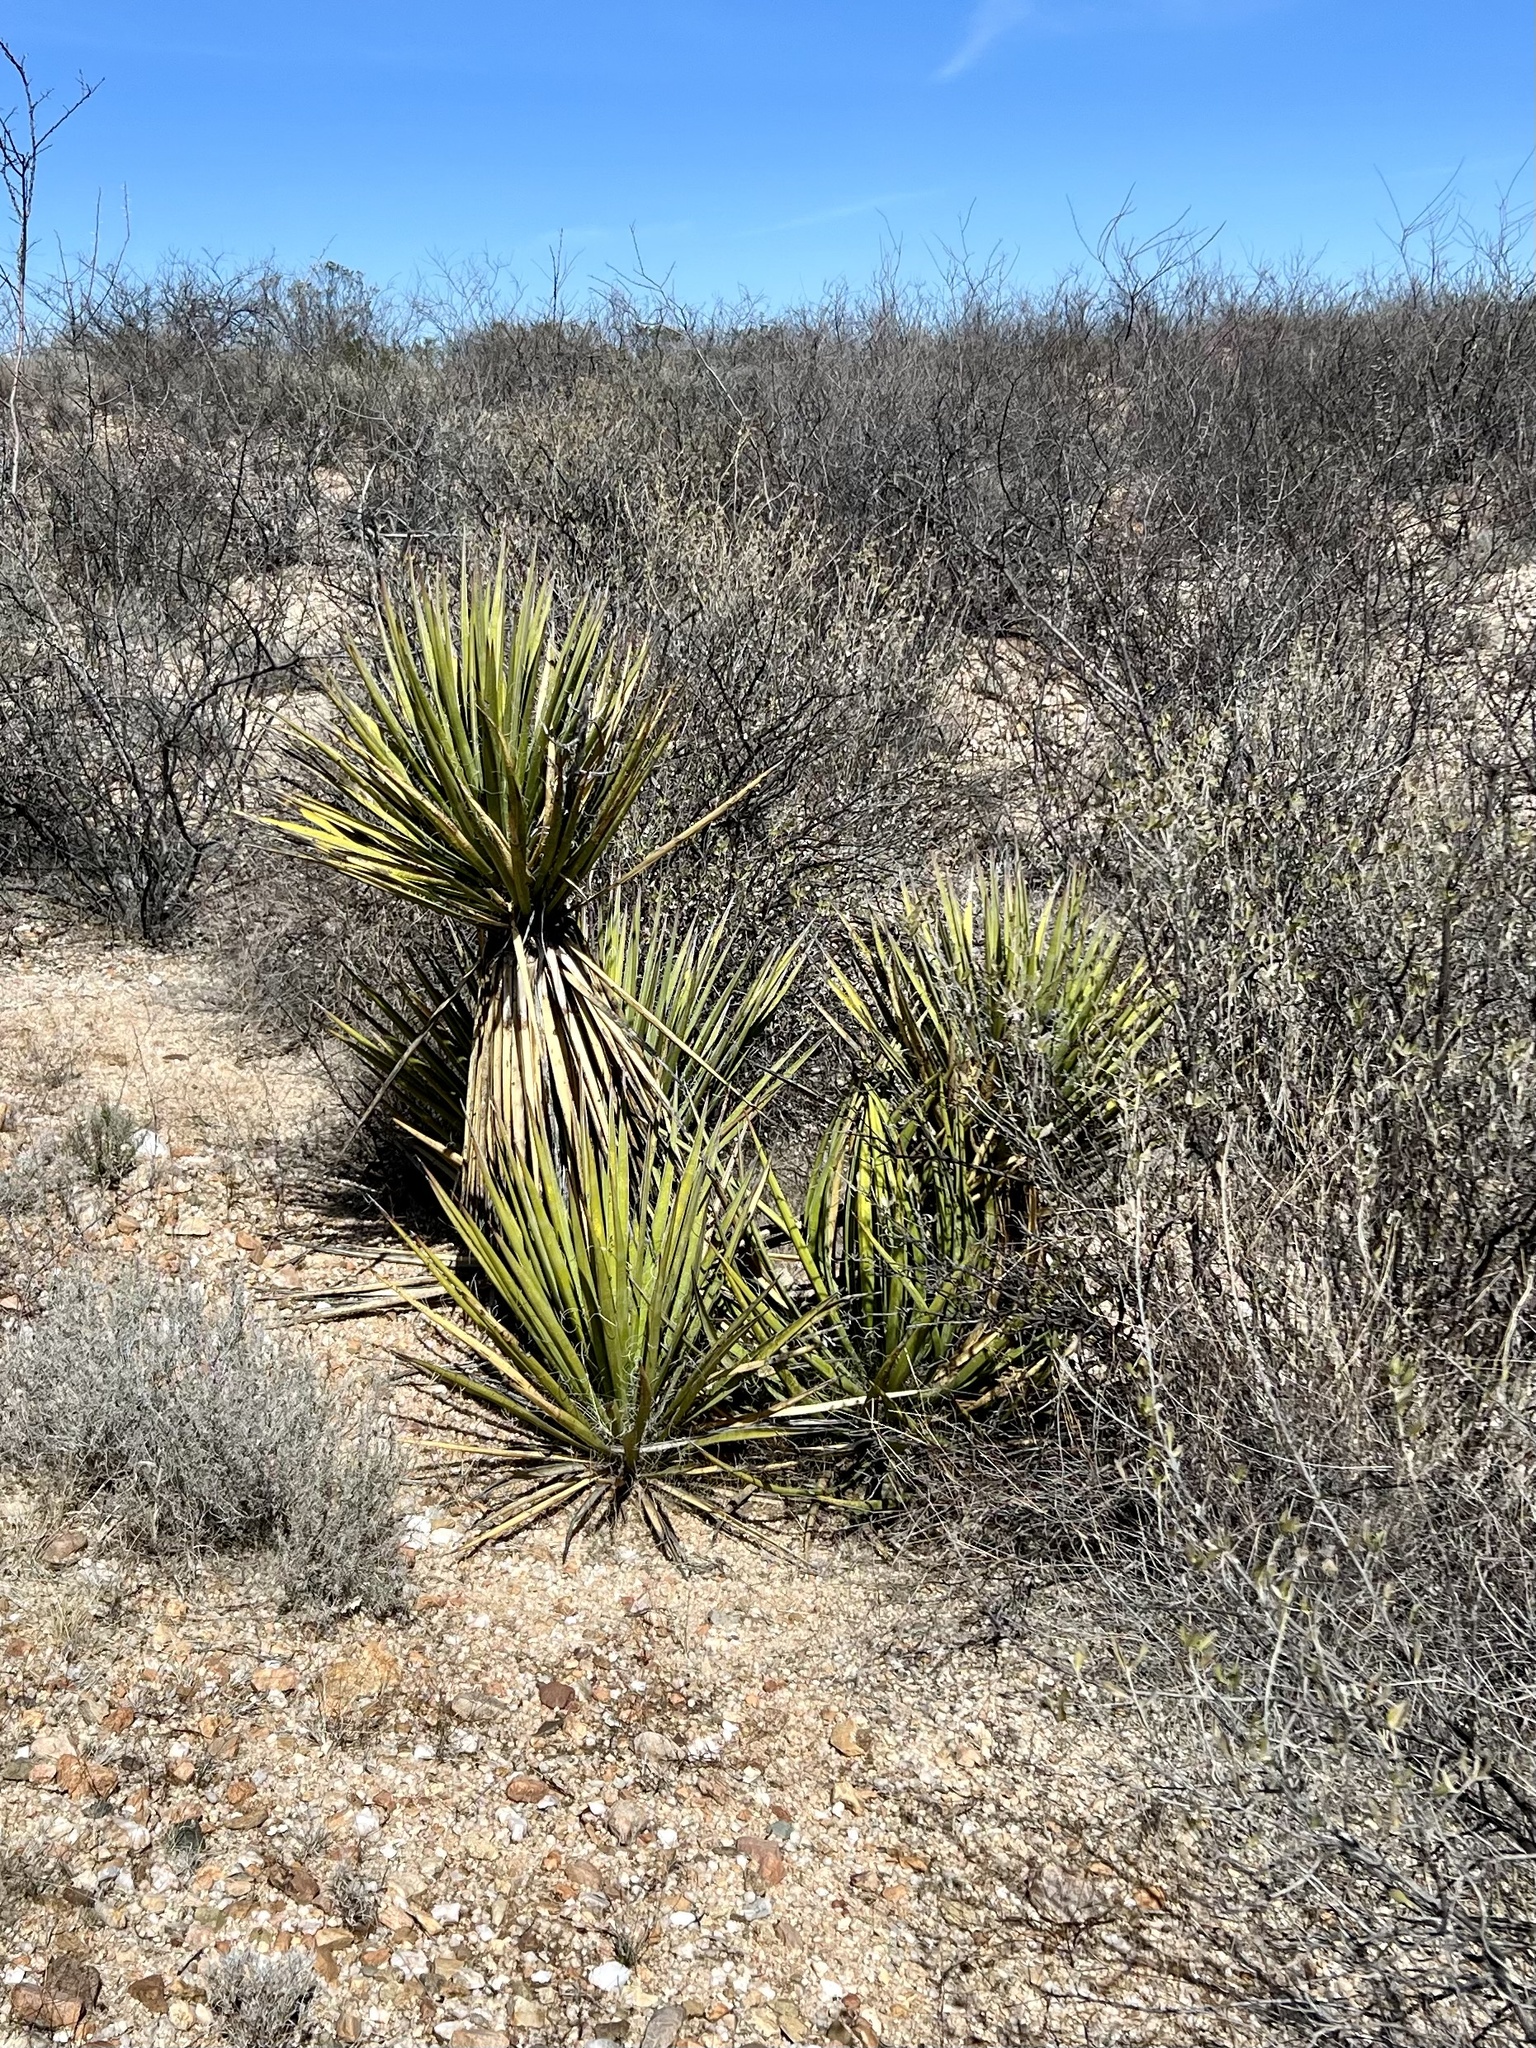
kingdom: Plantae
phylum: Tracheophyta
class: Liliopsida
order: Asparagales
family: Asparagaceae
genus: Yucca
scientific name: Yucca baccata
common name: Banana yucca
